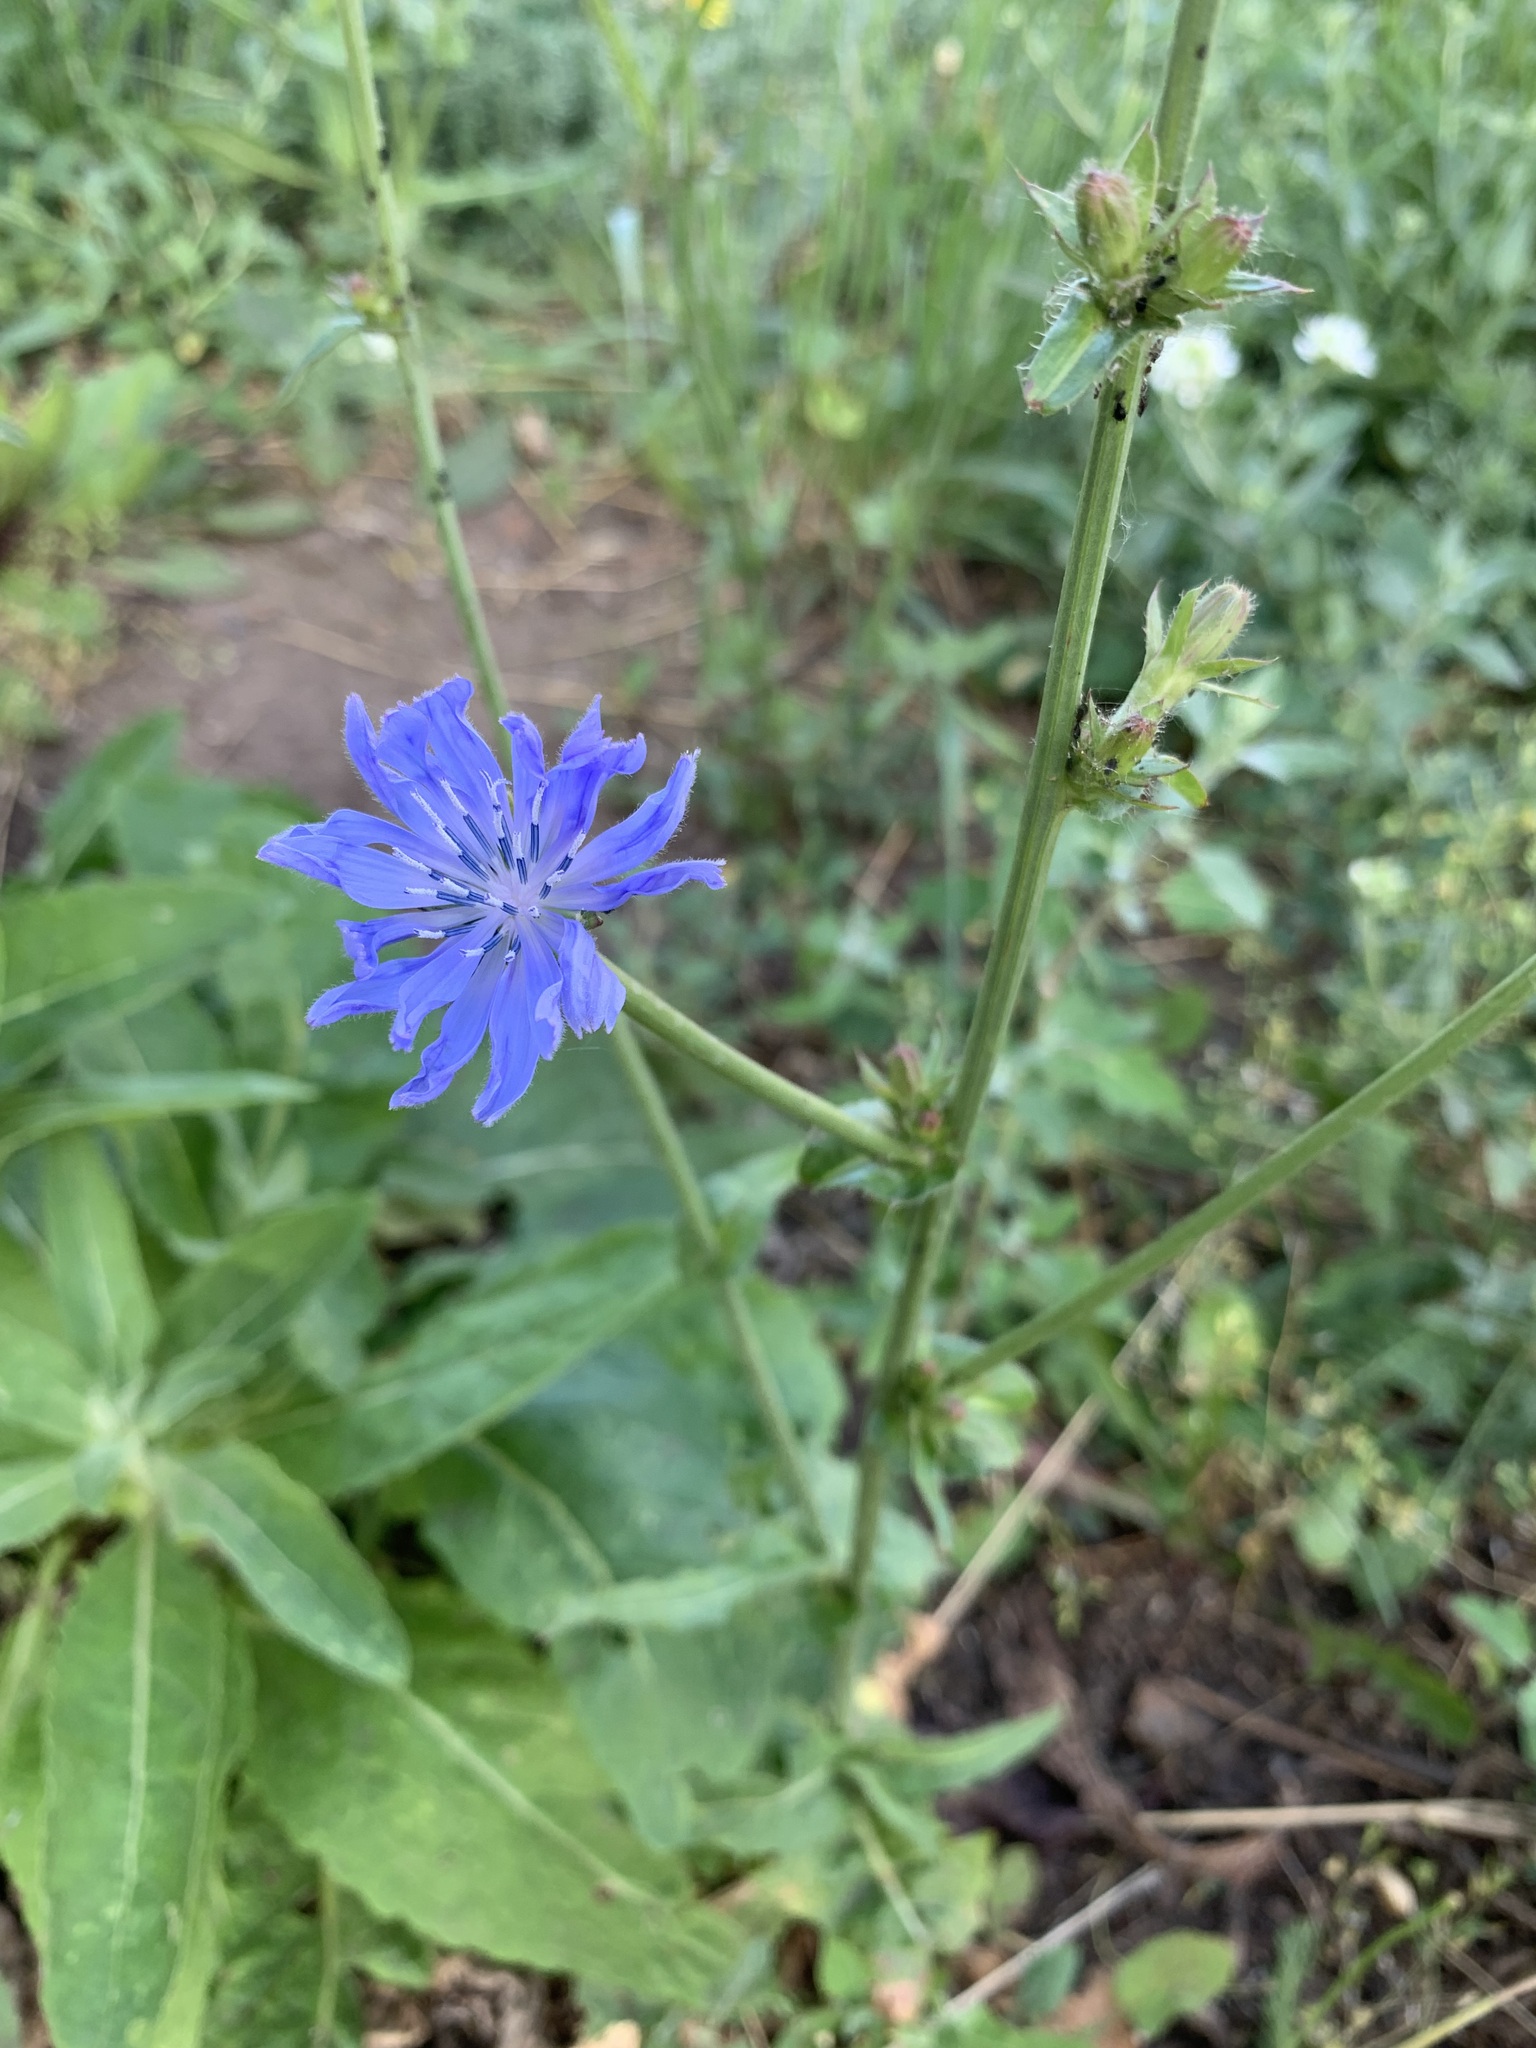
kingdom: Plantae
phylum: Tracheophyta
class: Magnoliopsida
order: Asterales
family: Asteraceae
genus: Cichorium
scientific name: Cichorium intybus
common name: Chicory
